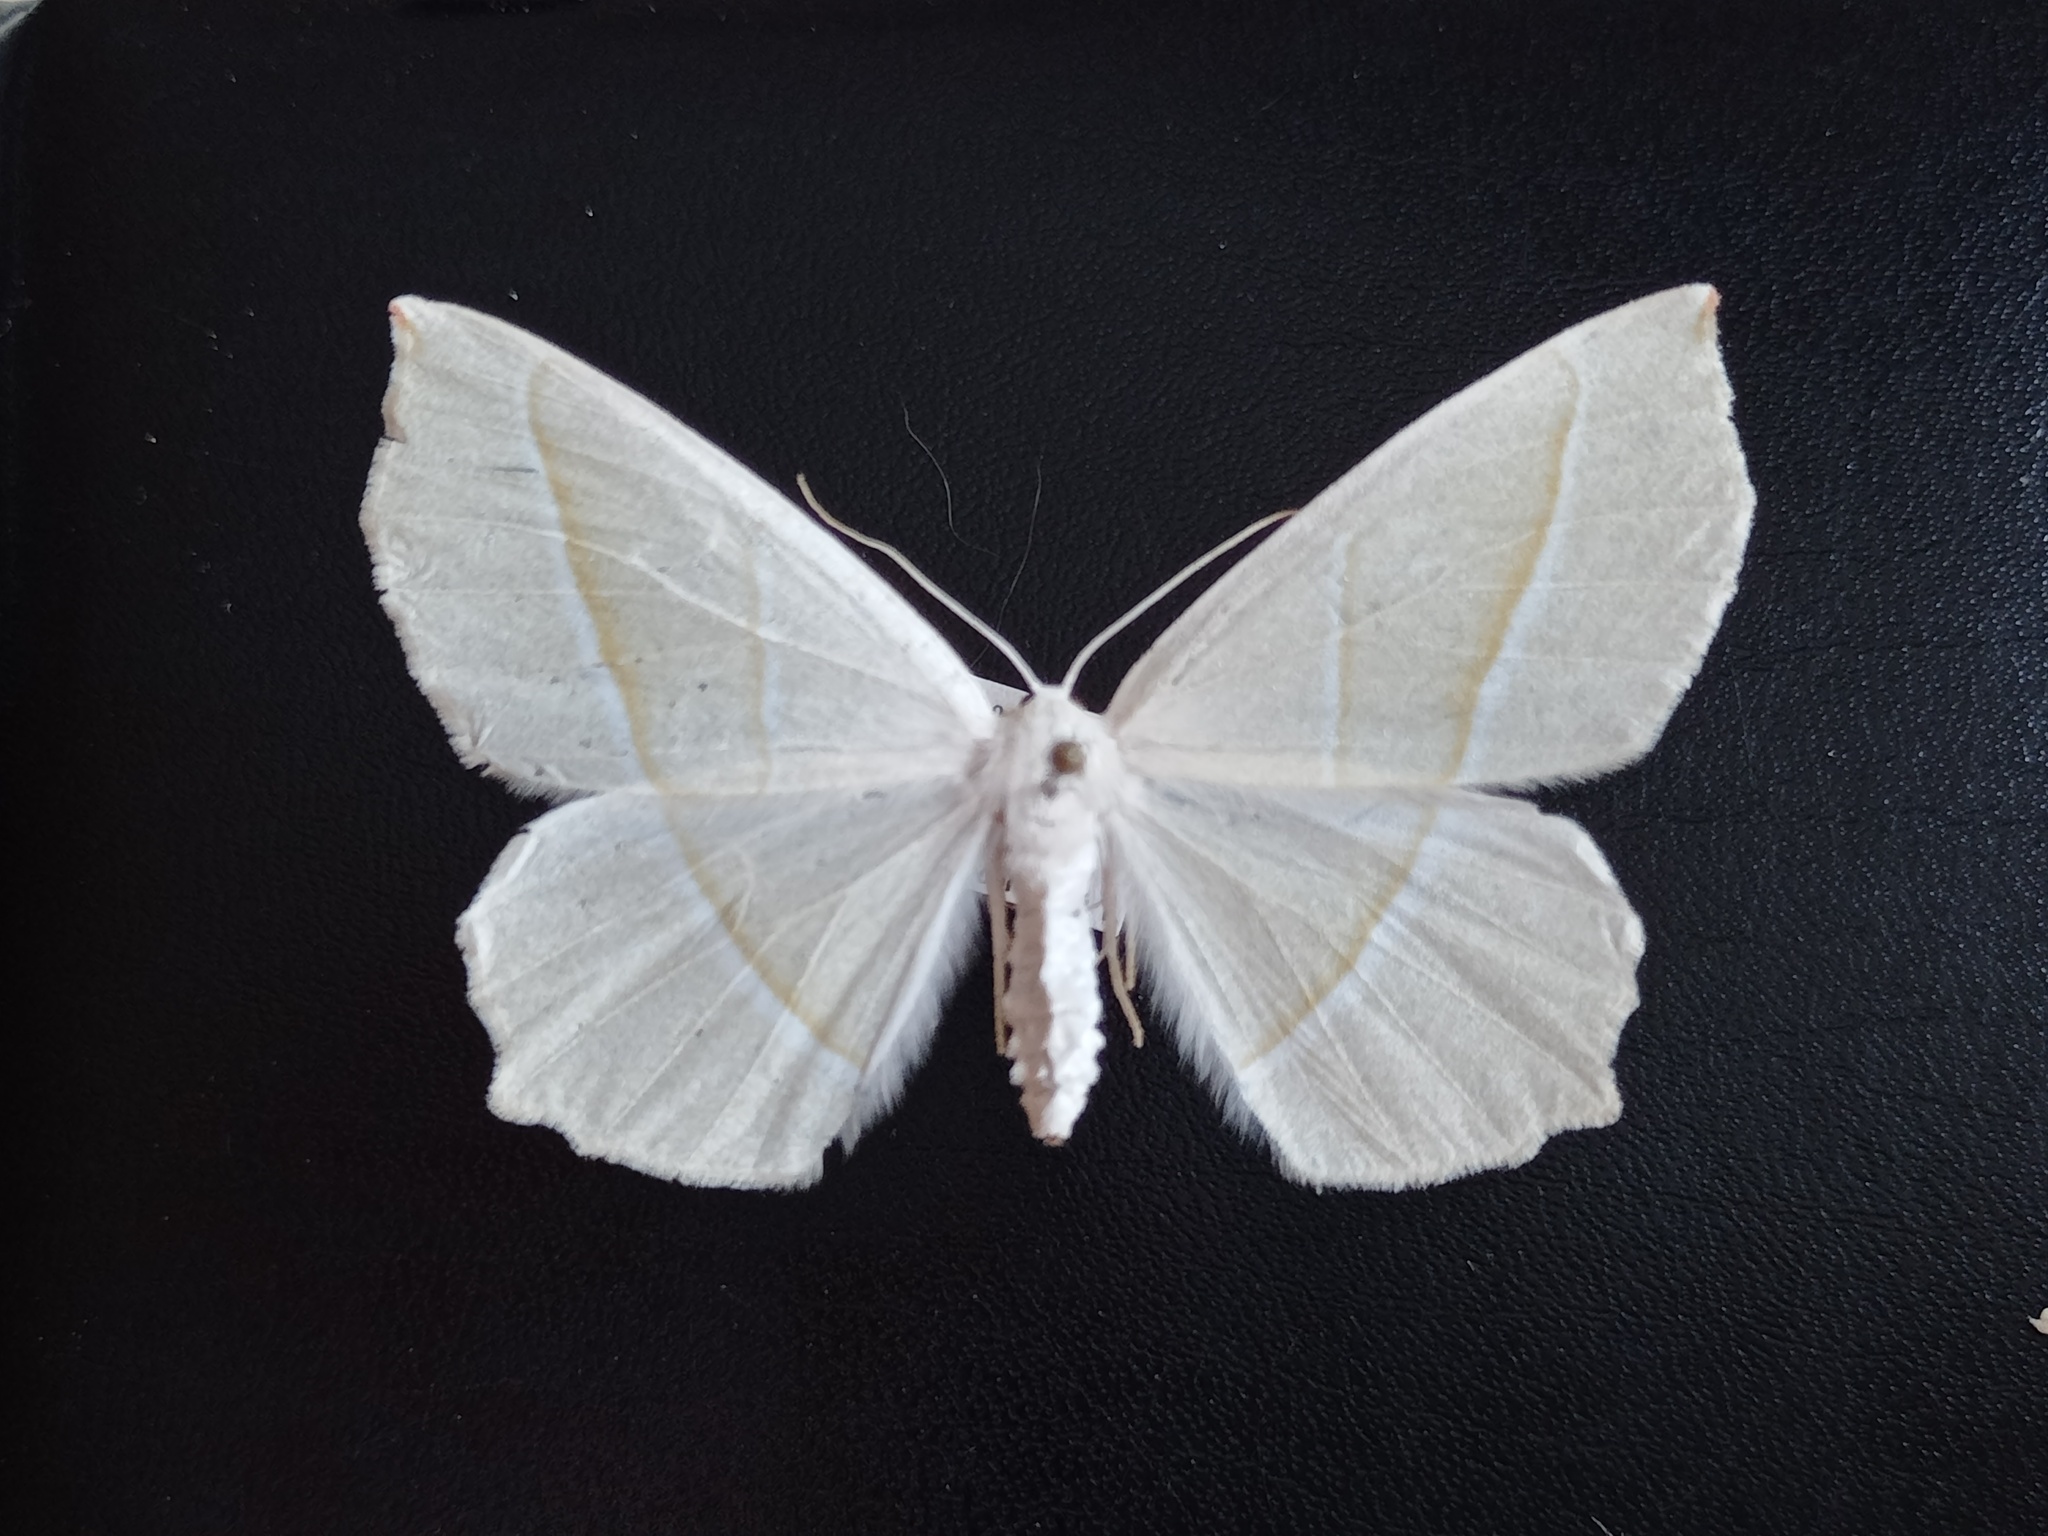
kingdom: Animalia
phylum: Arthropoda
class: Insecta
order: Lepidoptera
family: Geometridae
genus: Campaea
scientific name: Campaea margaritaria
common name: Light emerald
